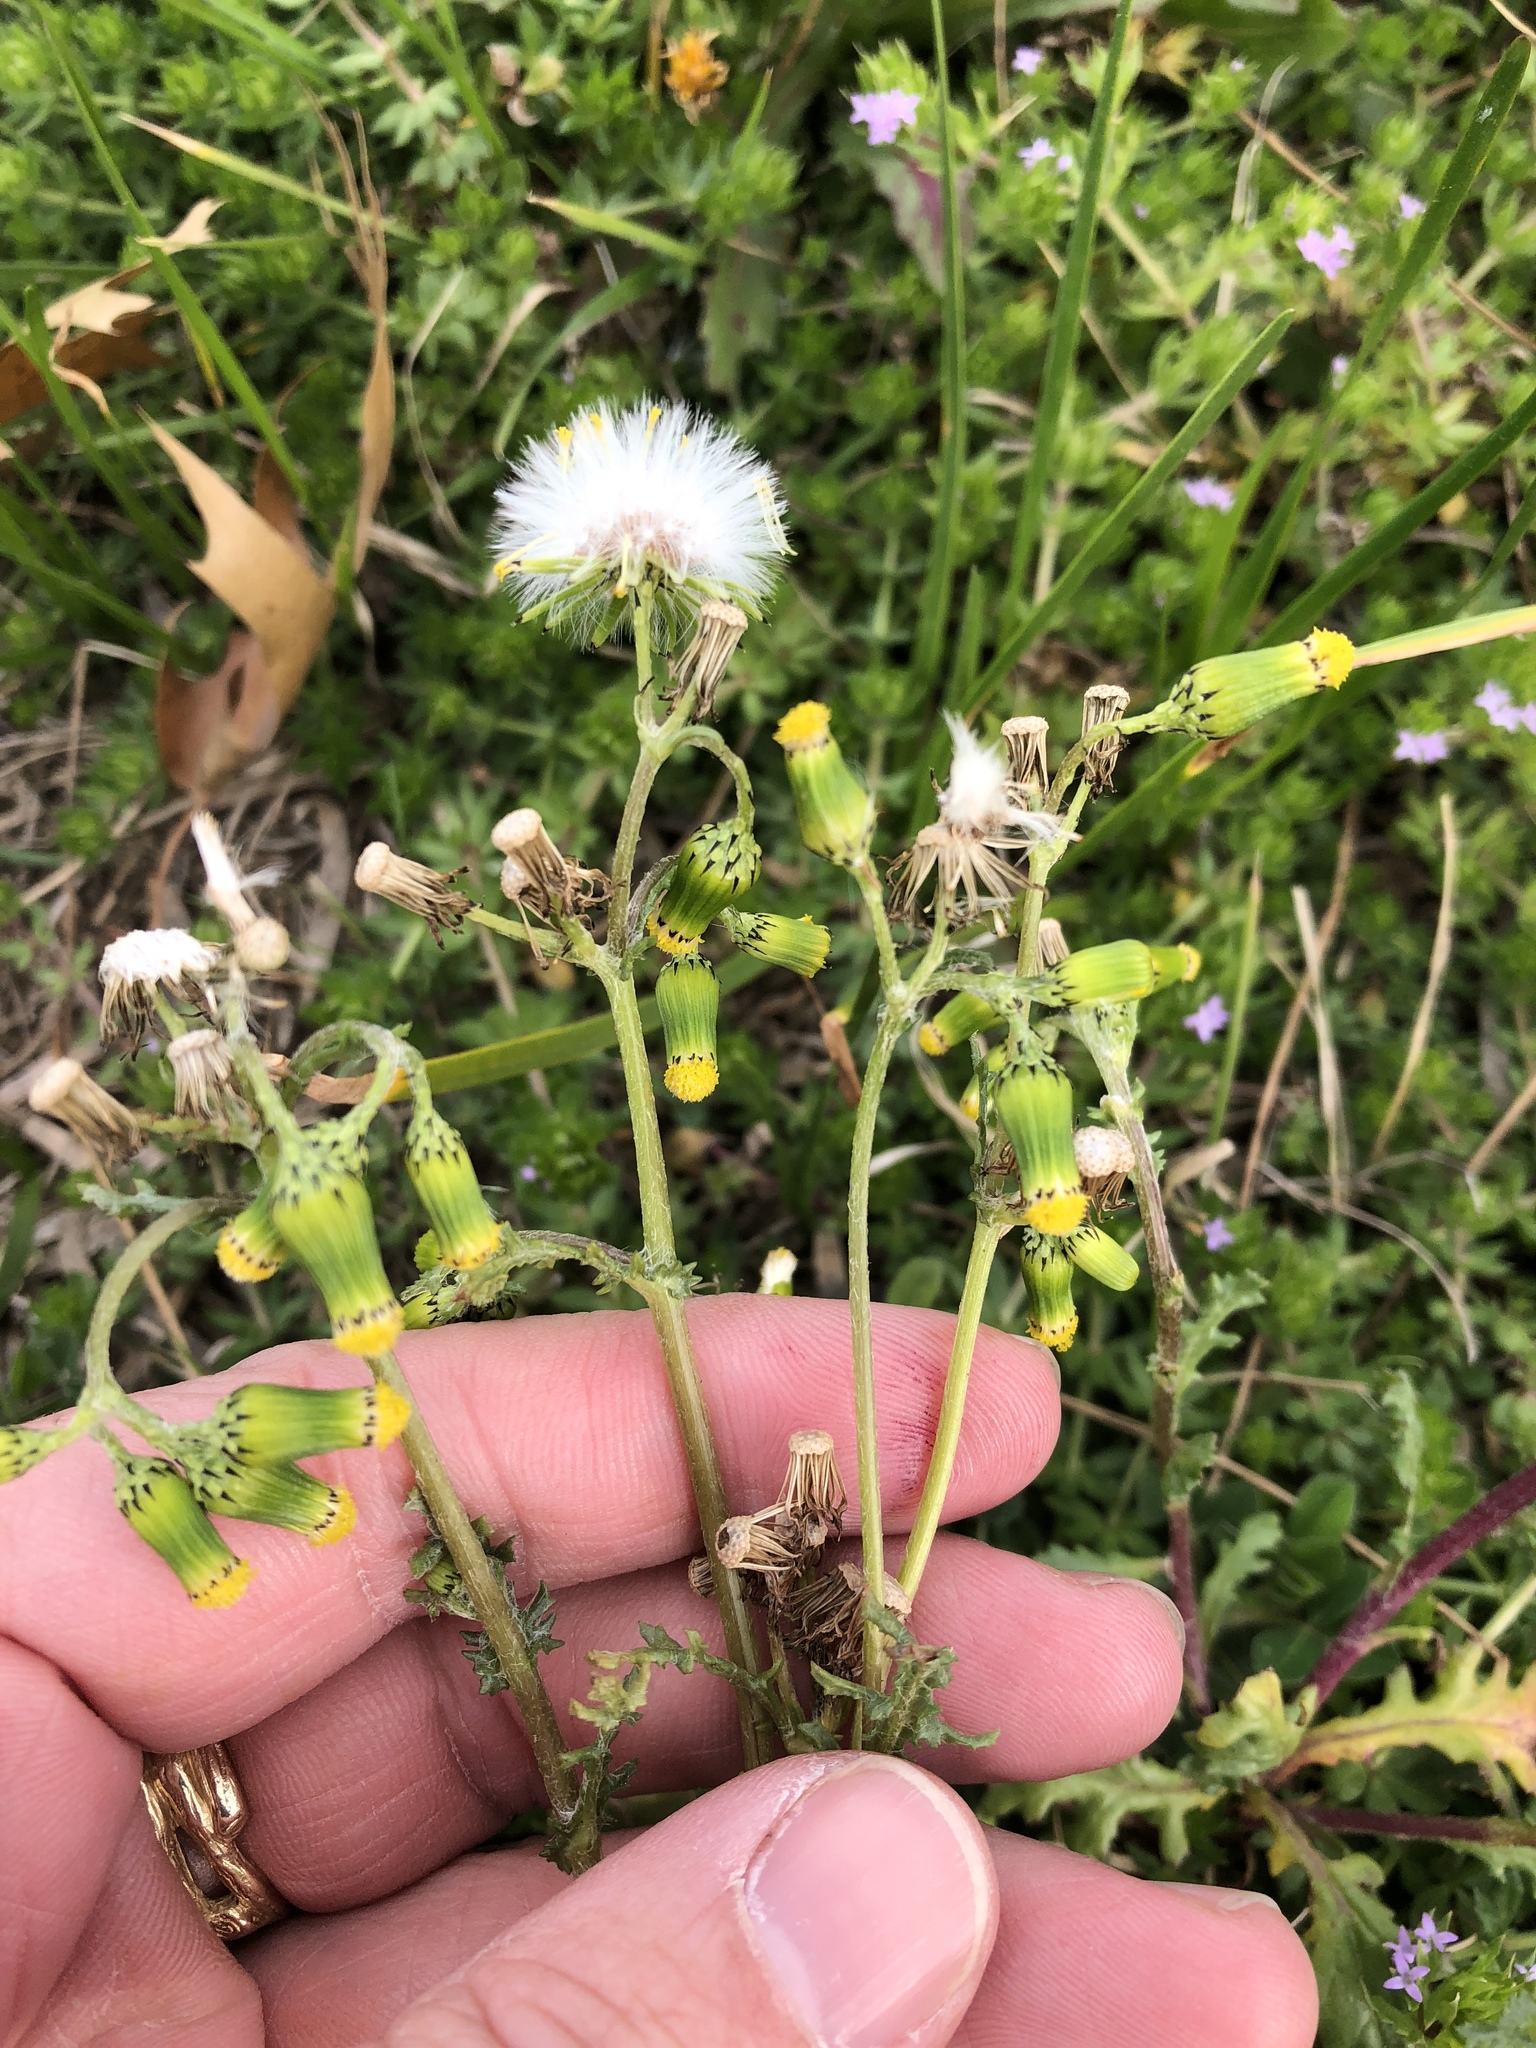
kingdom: Plantae
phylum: Tracheophyta
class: Magnoliopsida
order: Asterales
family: Asteraceae
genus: Senecio
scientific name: Senecio vulgaris
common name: Old-man-in-the-spring
